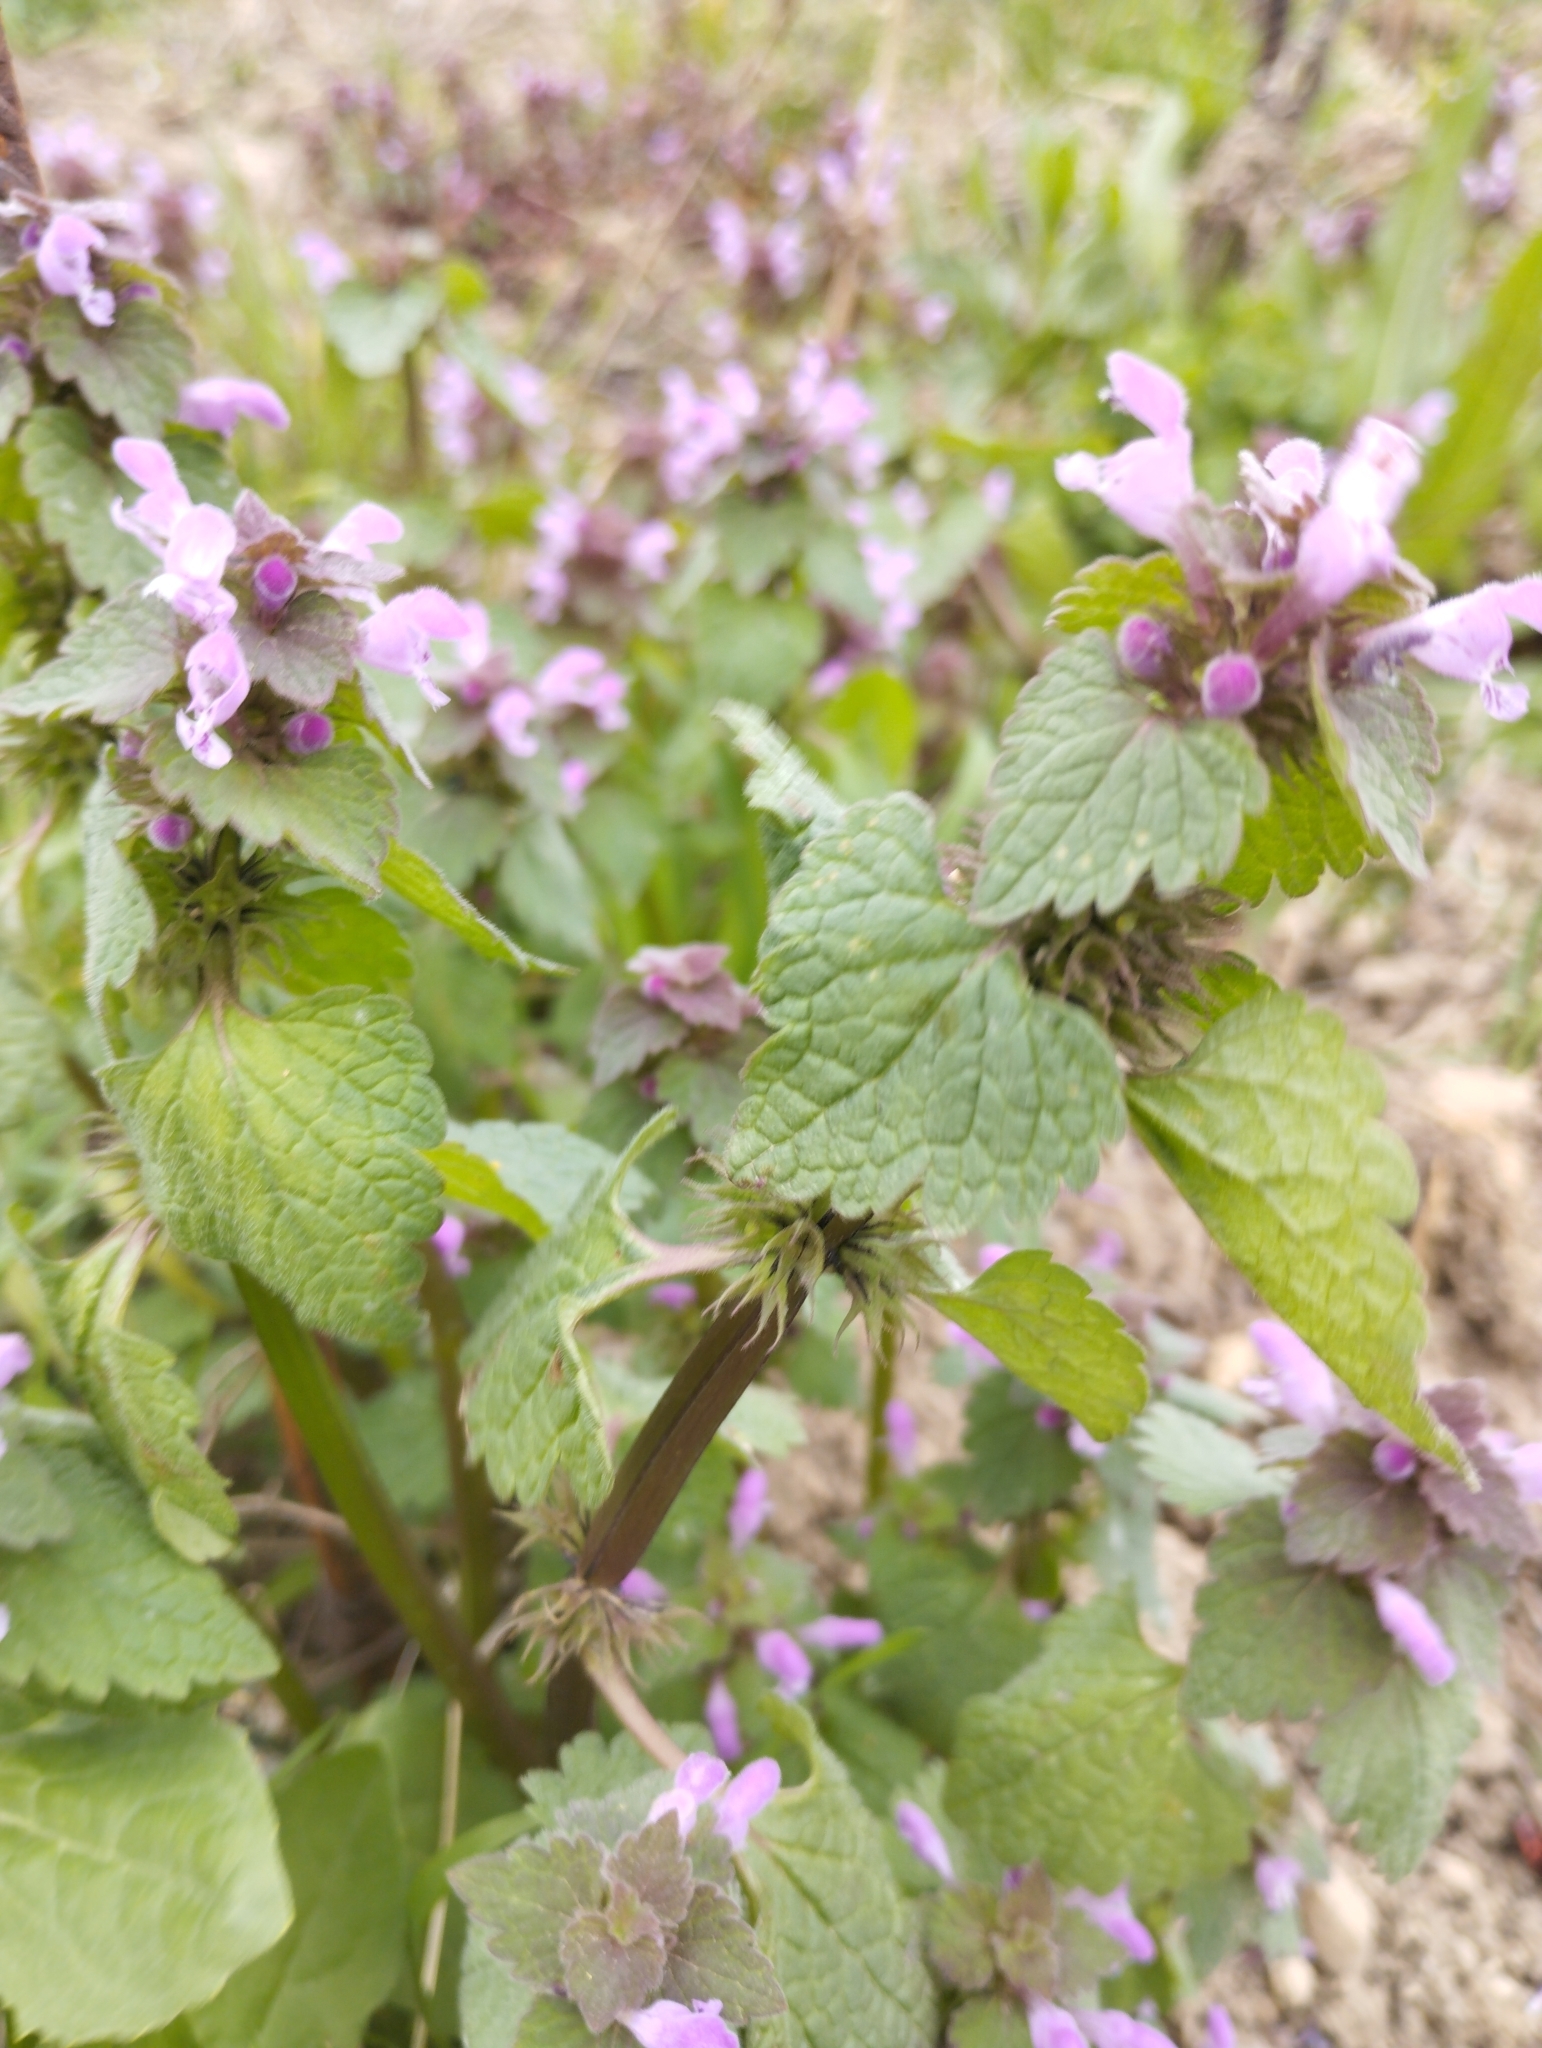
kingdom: Plantae
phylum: Tracheophyta
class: Magnoliopsida
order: Lamiales
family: Lamiaceae
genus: Lamium
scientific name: Lamium purpureum
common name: Red dead-nettle
